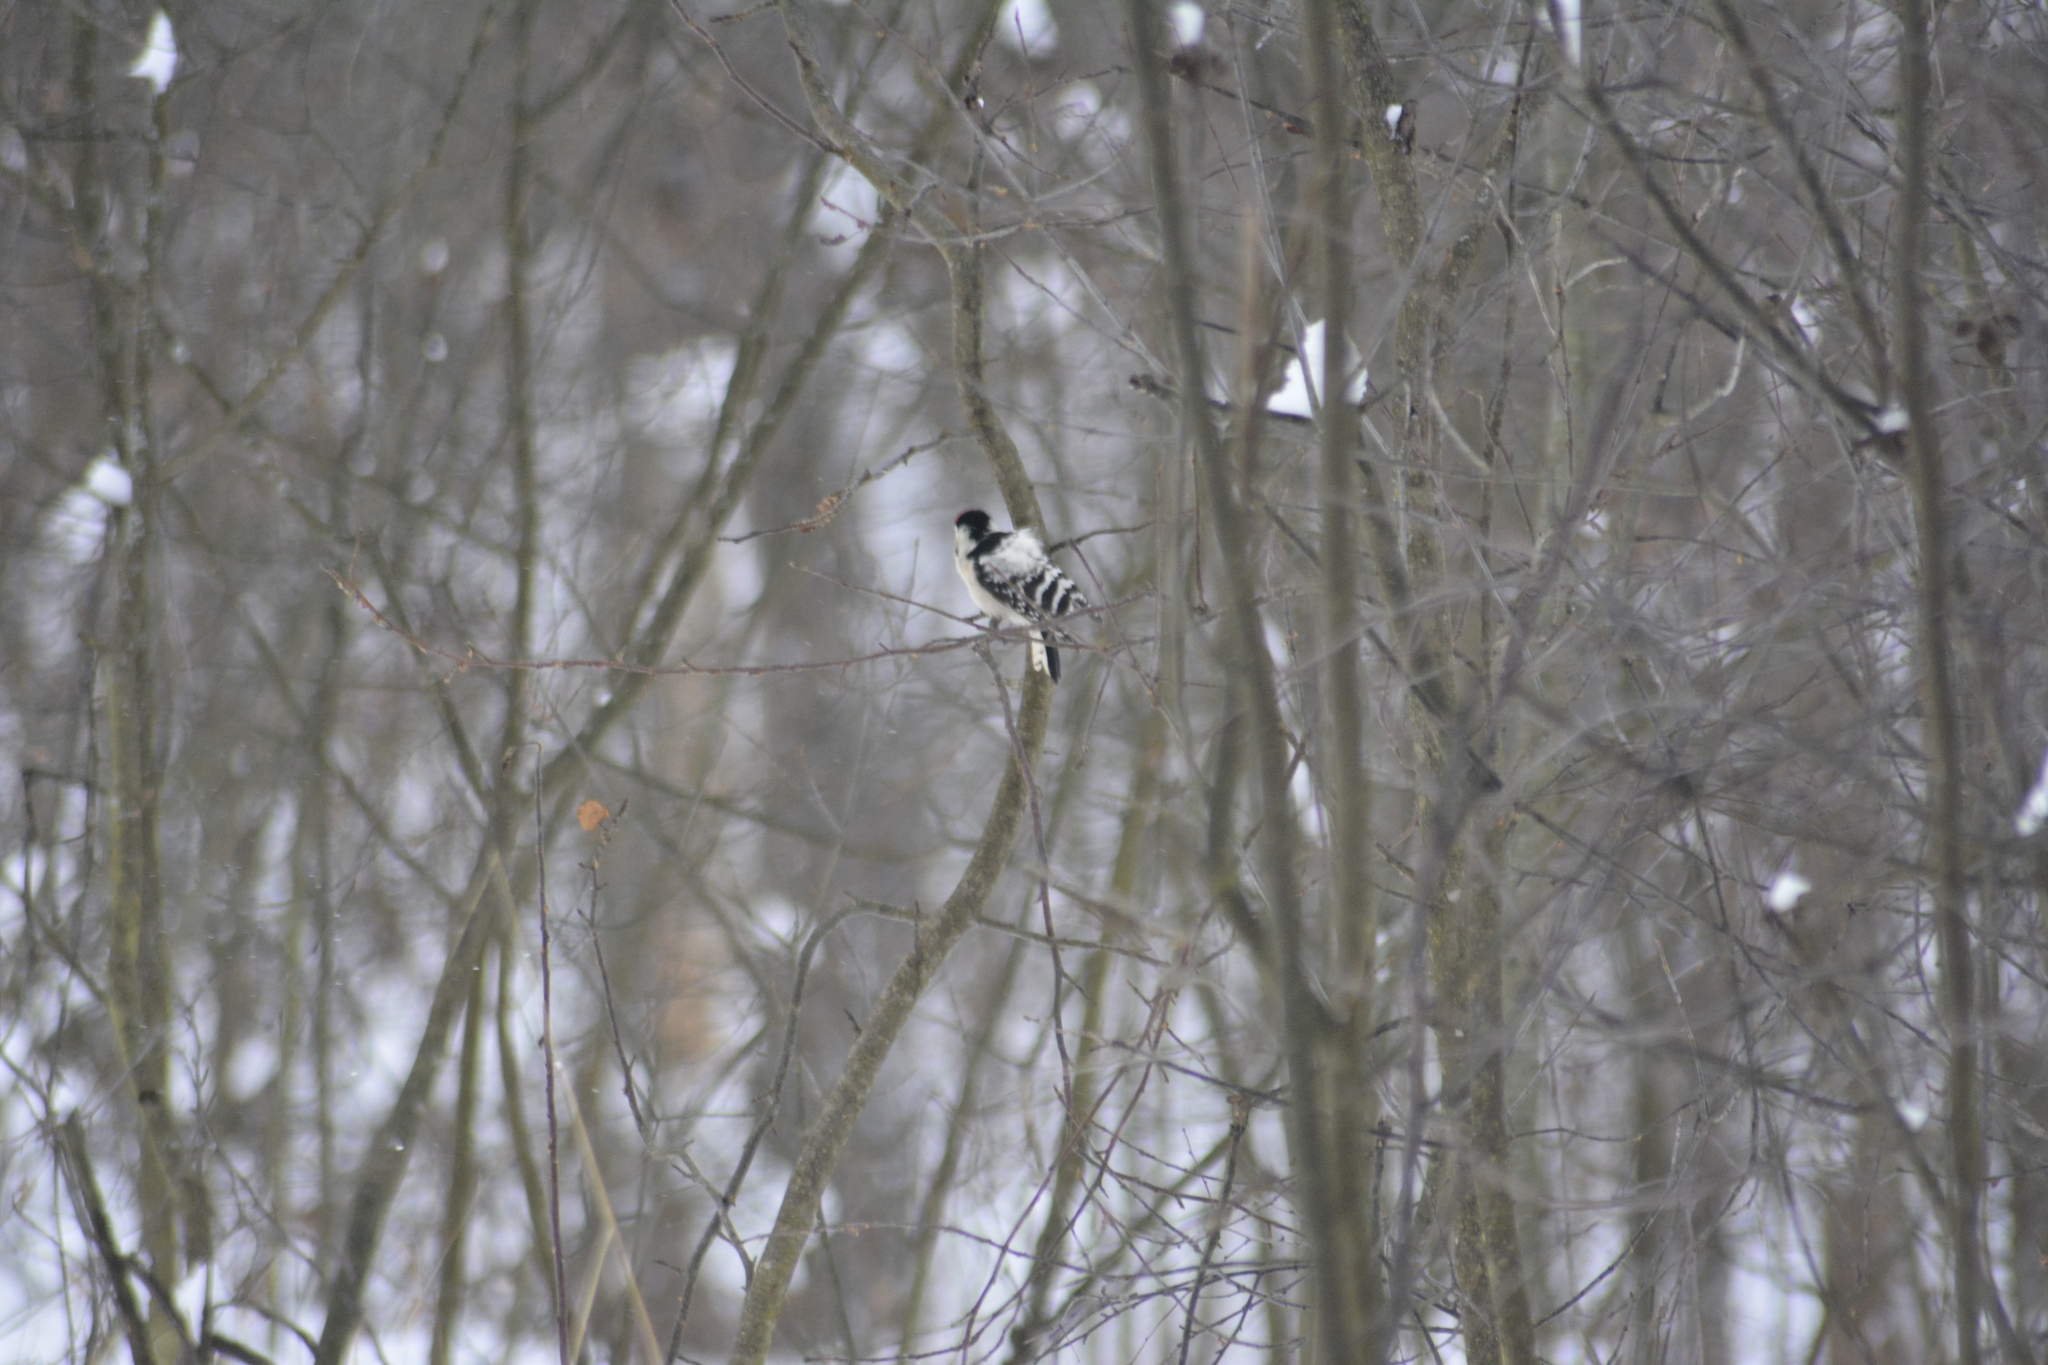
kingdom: Animalia
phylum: Chordata
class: Aves
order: Piciformes
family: Picidae
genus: Dryobates
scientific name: Dryobates minor
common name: Lesser spotted woodpecker
